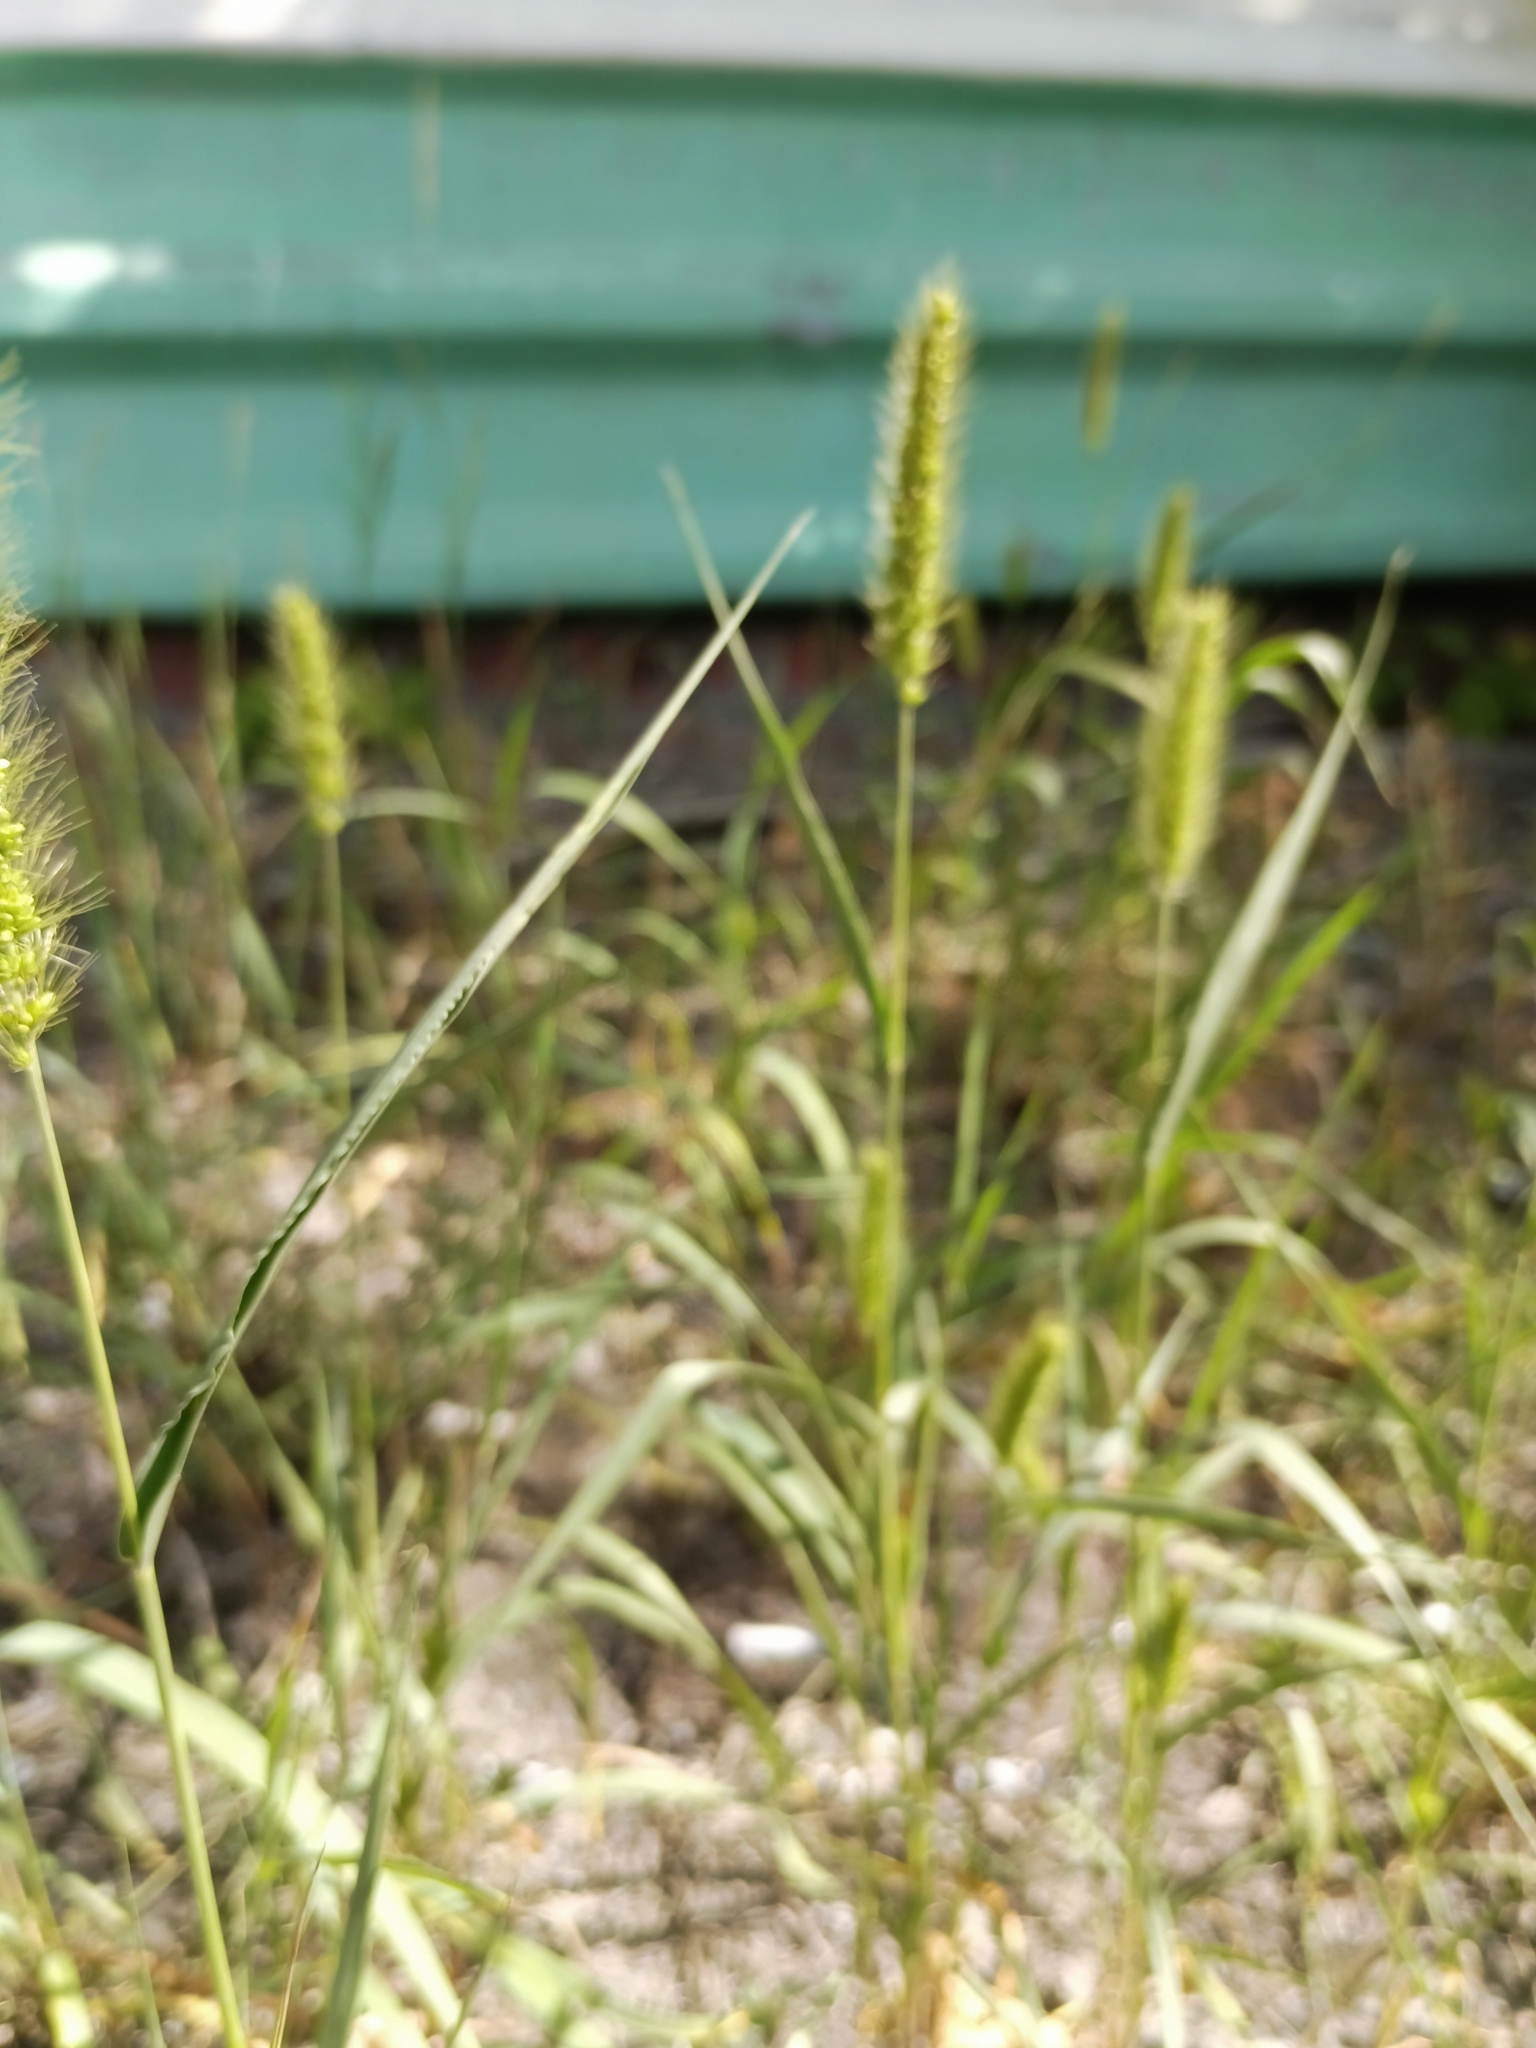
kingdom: Plantae
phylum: Tracheophyta
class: Liliopsida
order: Poales
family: Poaceae
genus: Setaria
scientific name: Setaria viridis
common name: Green bristlegrass
